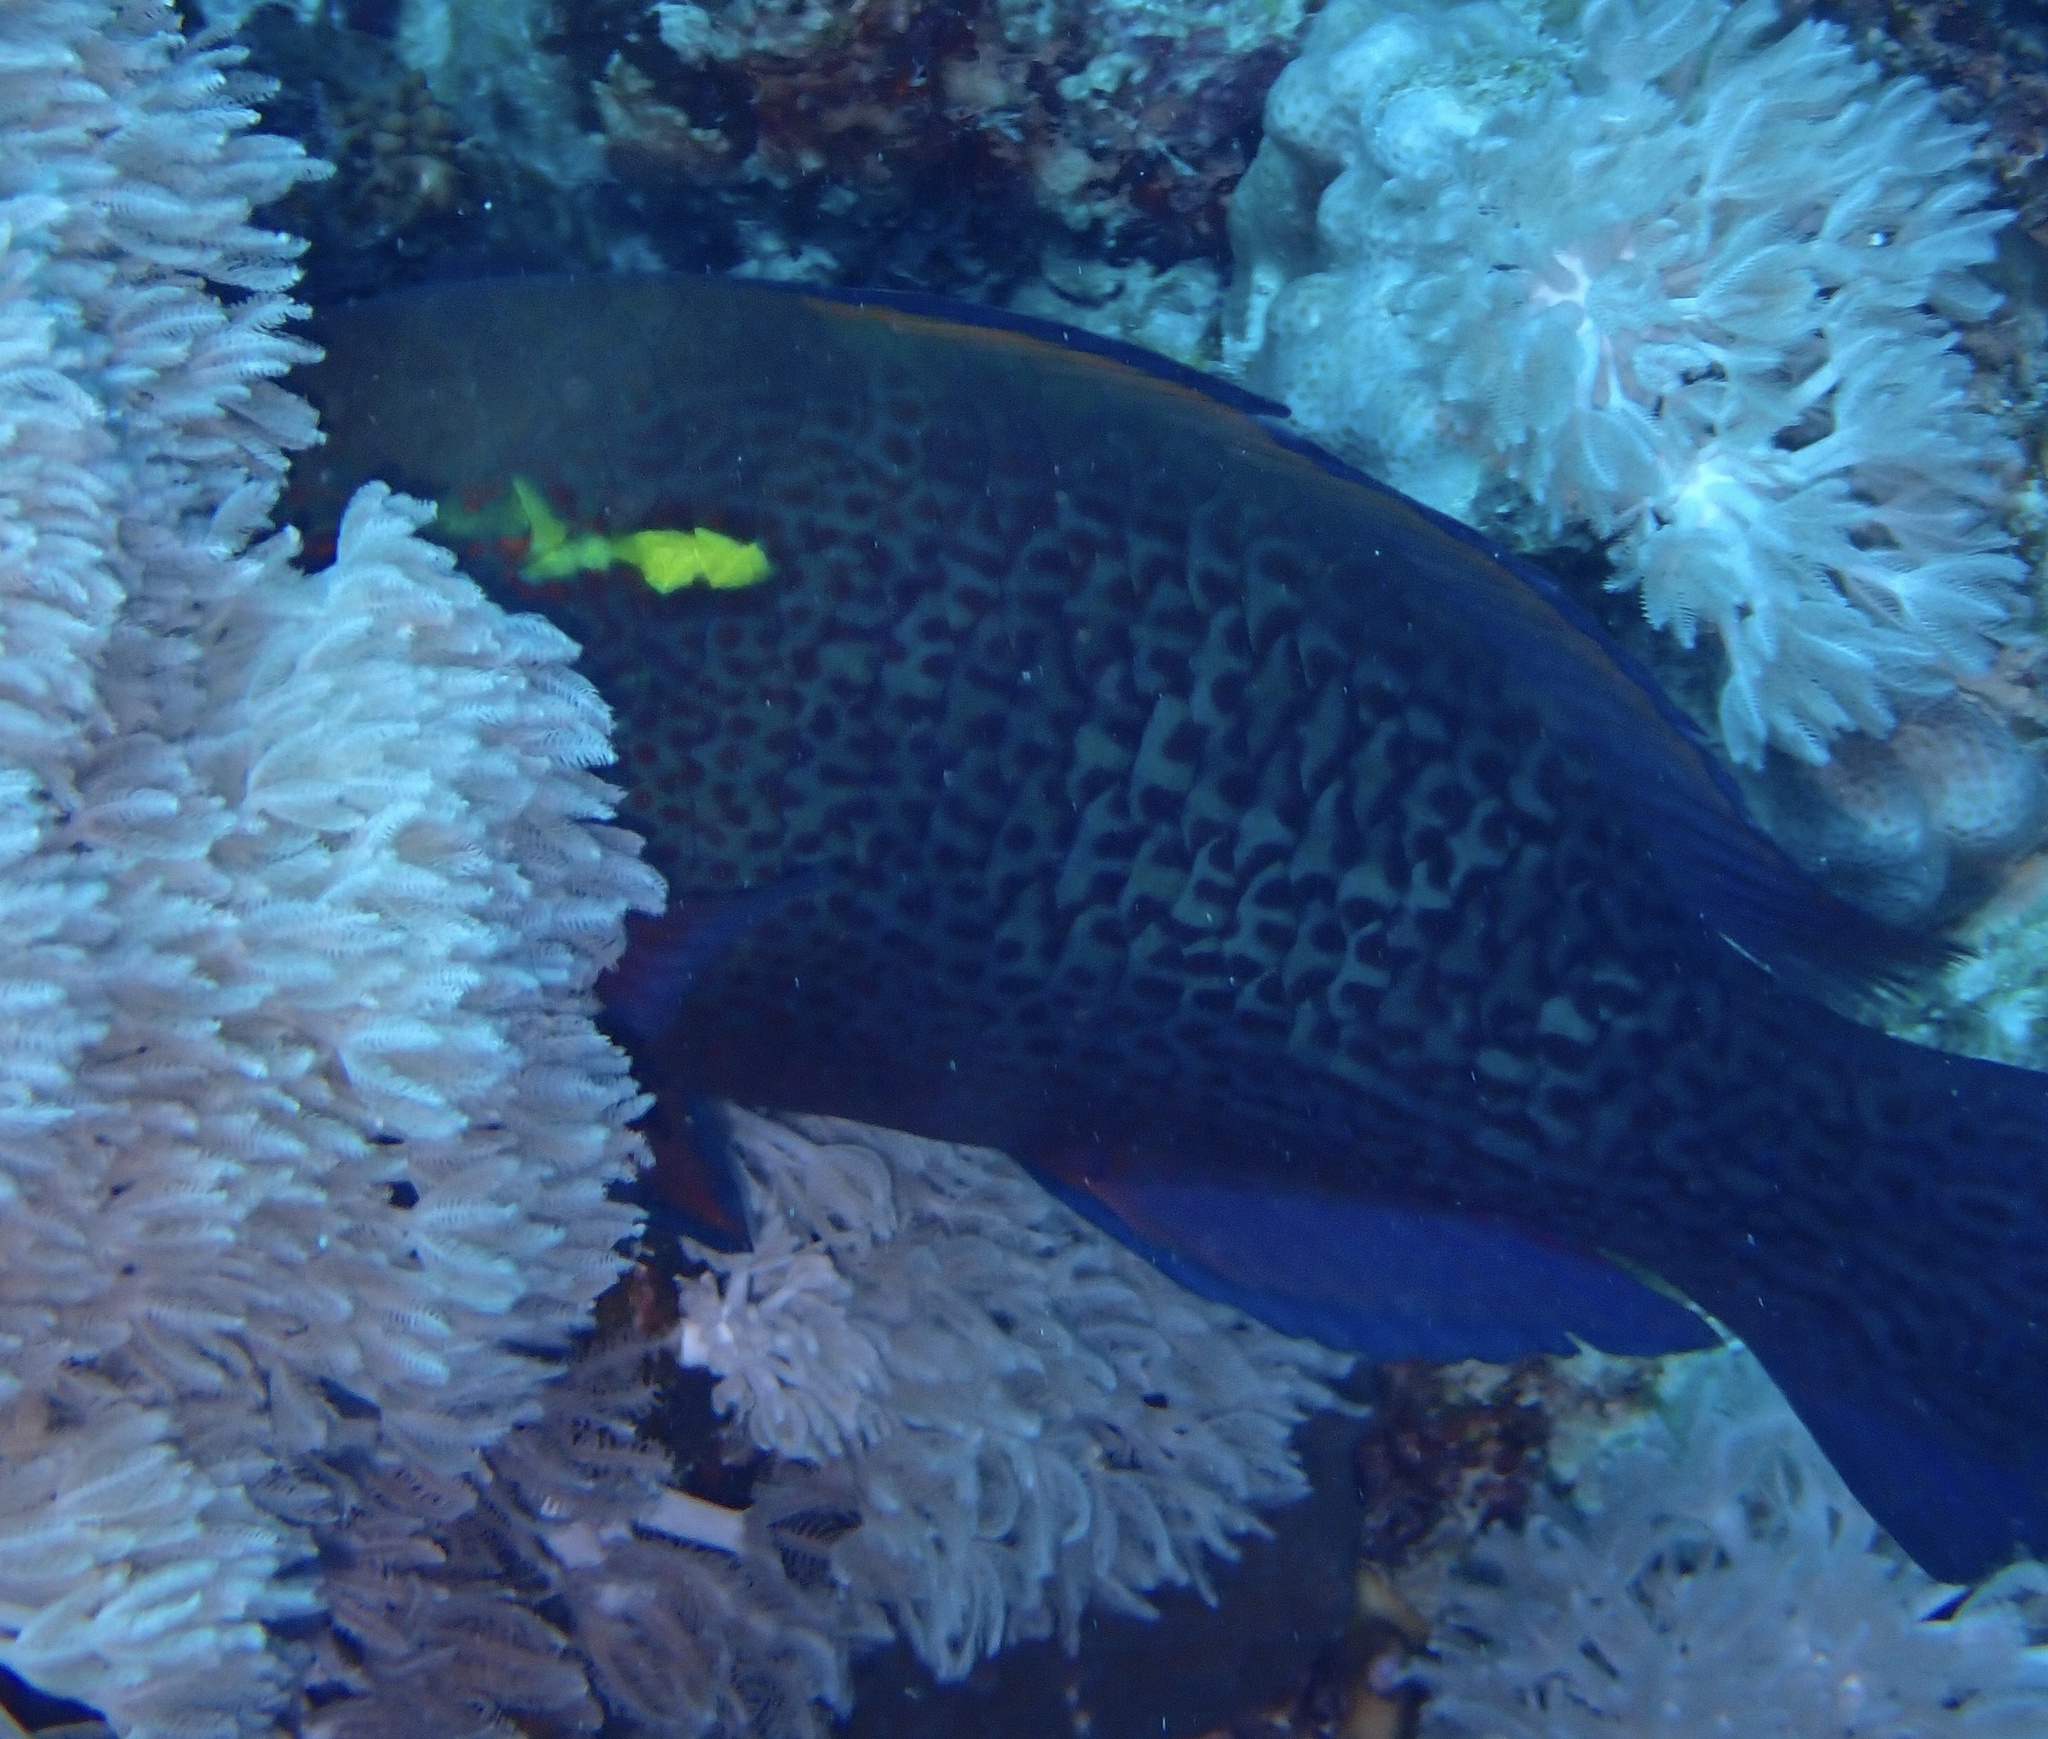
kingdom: Animalia
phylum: Chordata
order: Perciformes
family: Scaridae
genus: Scarus
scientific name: Scarus niger
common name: Dusky parrotfish
